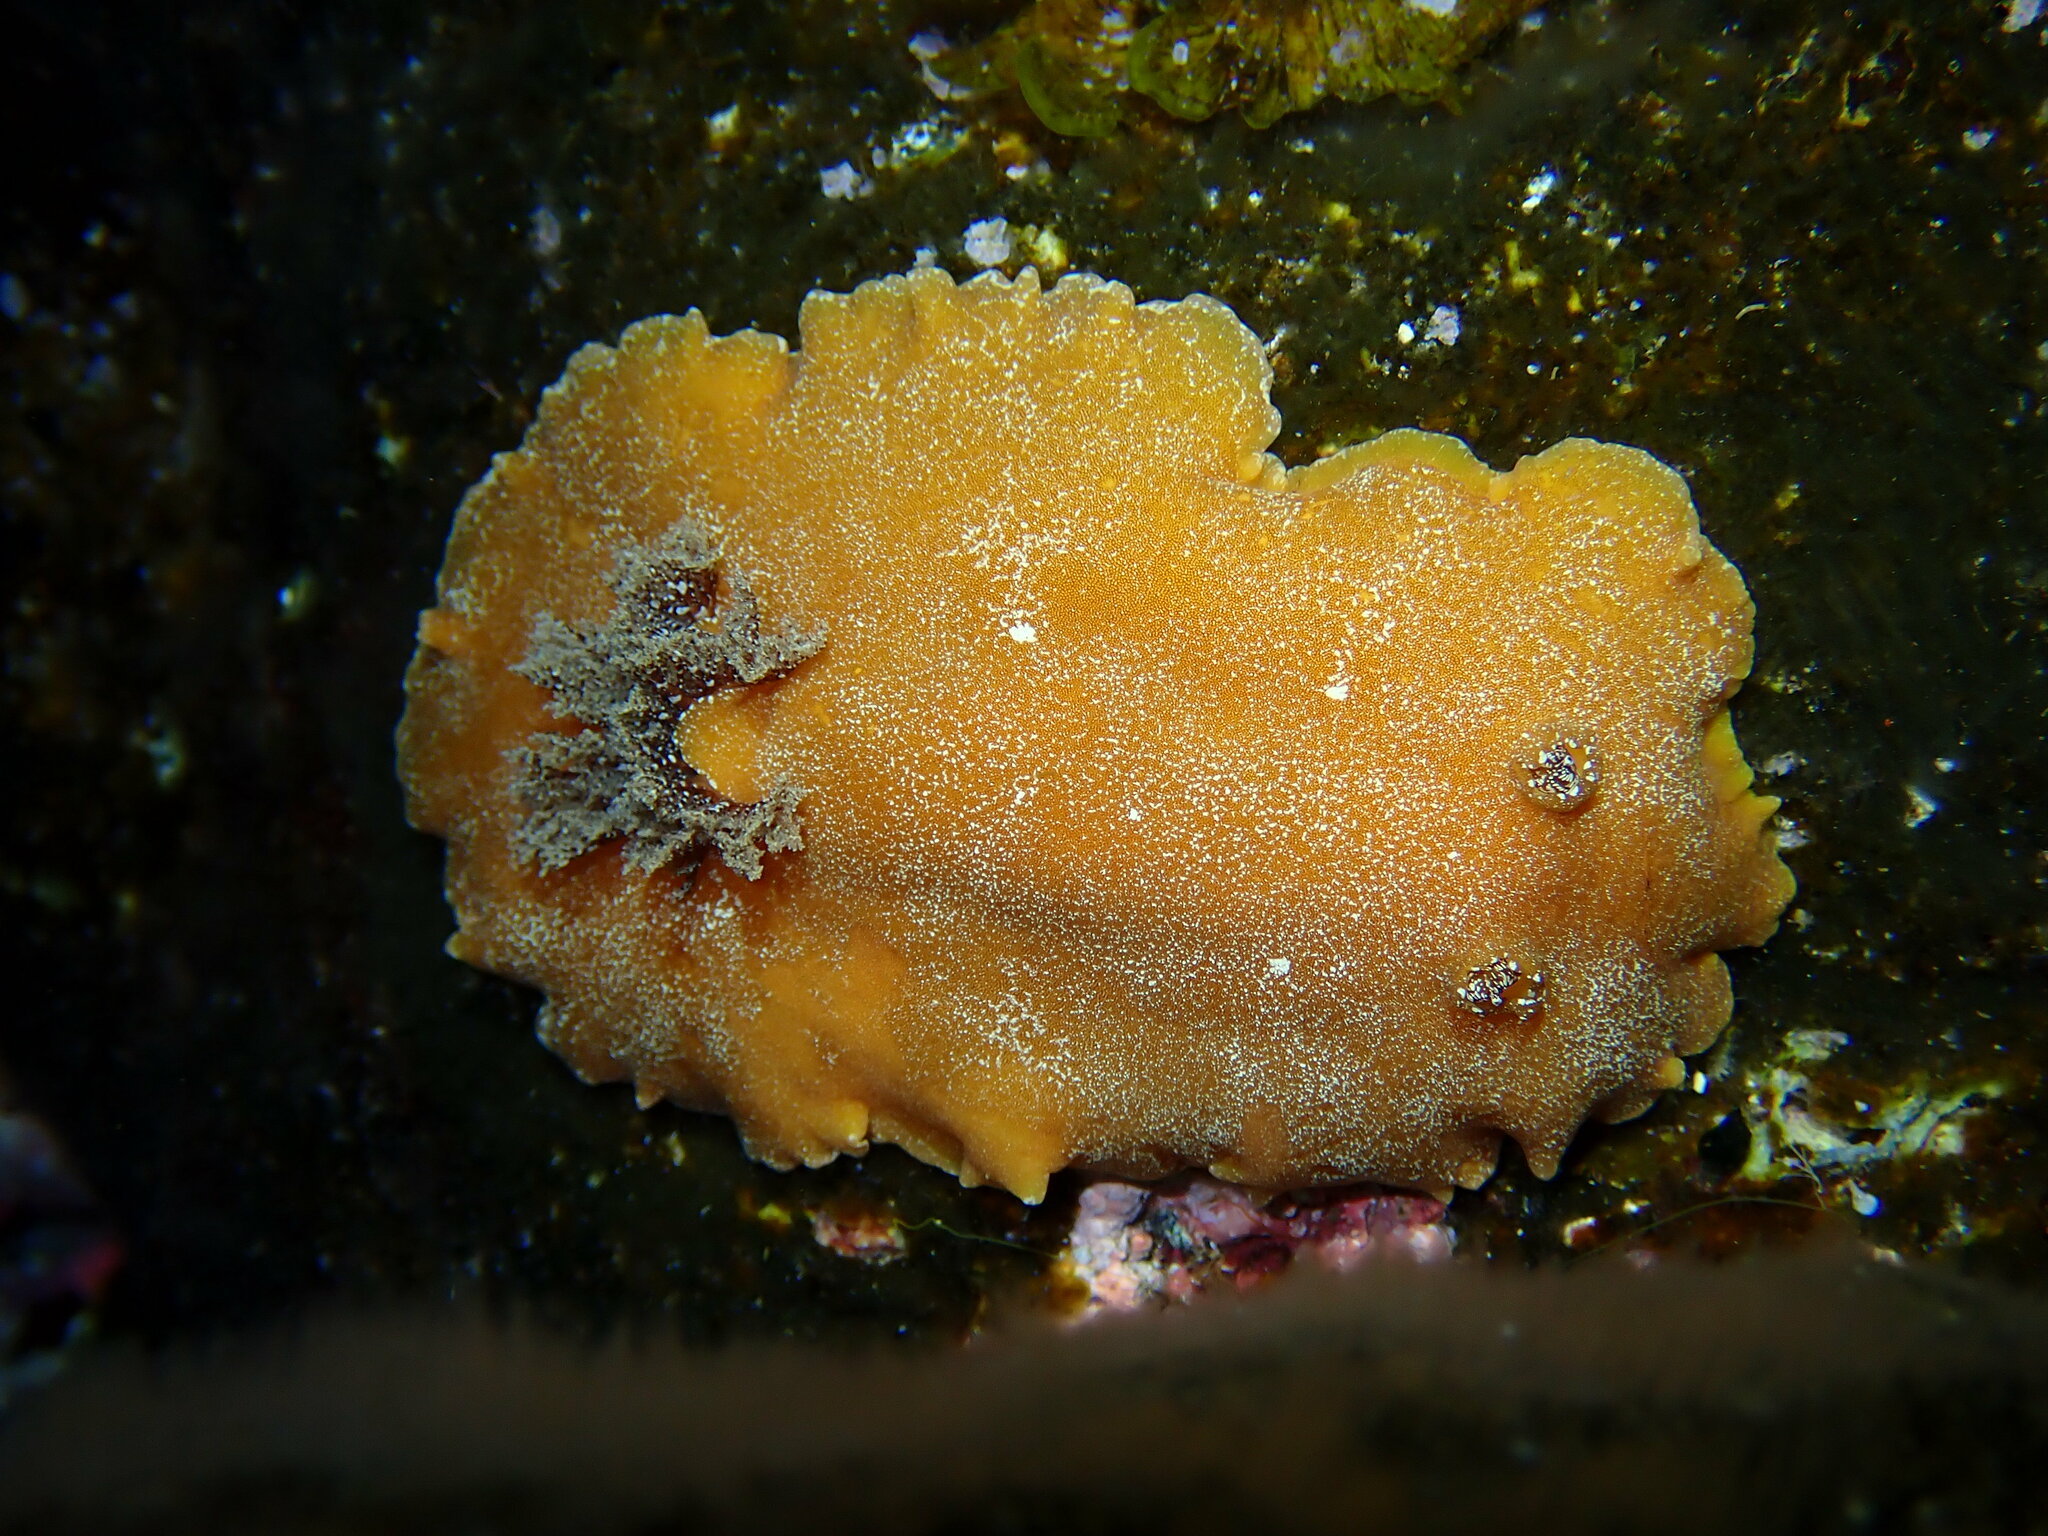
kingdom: Animalia
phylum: Mollusca
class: Gastropoda
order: Nudibranchia
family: Discodorididae
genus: Platydoris
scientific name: Platydoris argo
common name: Redbrown leathery doris
